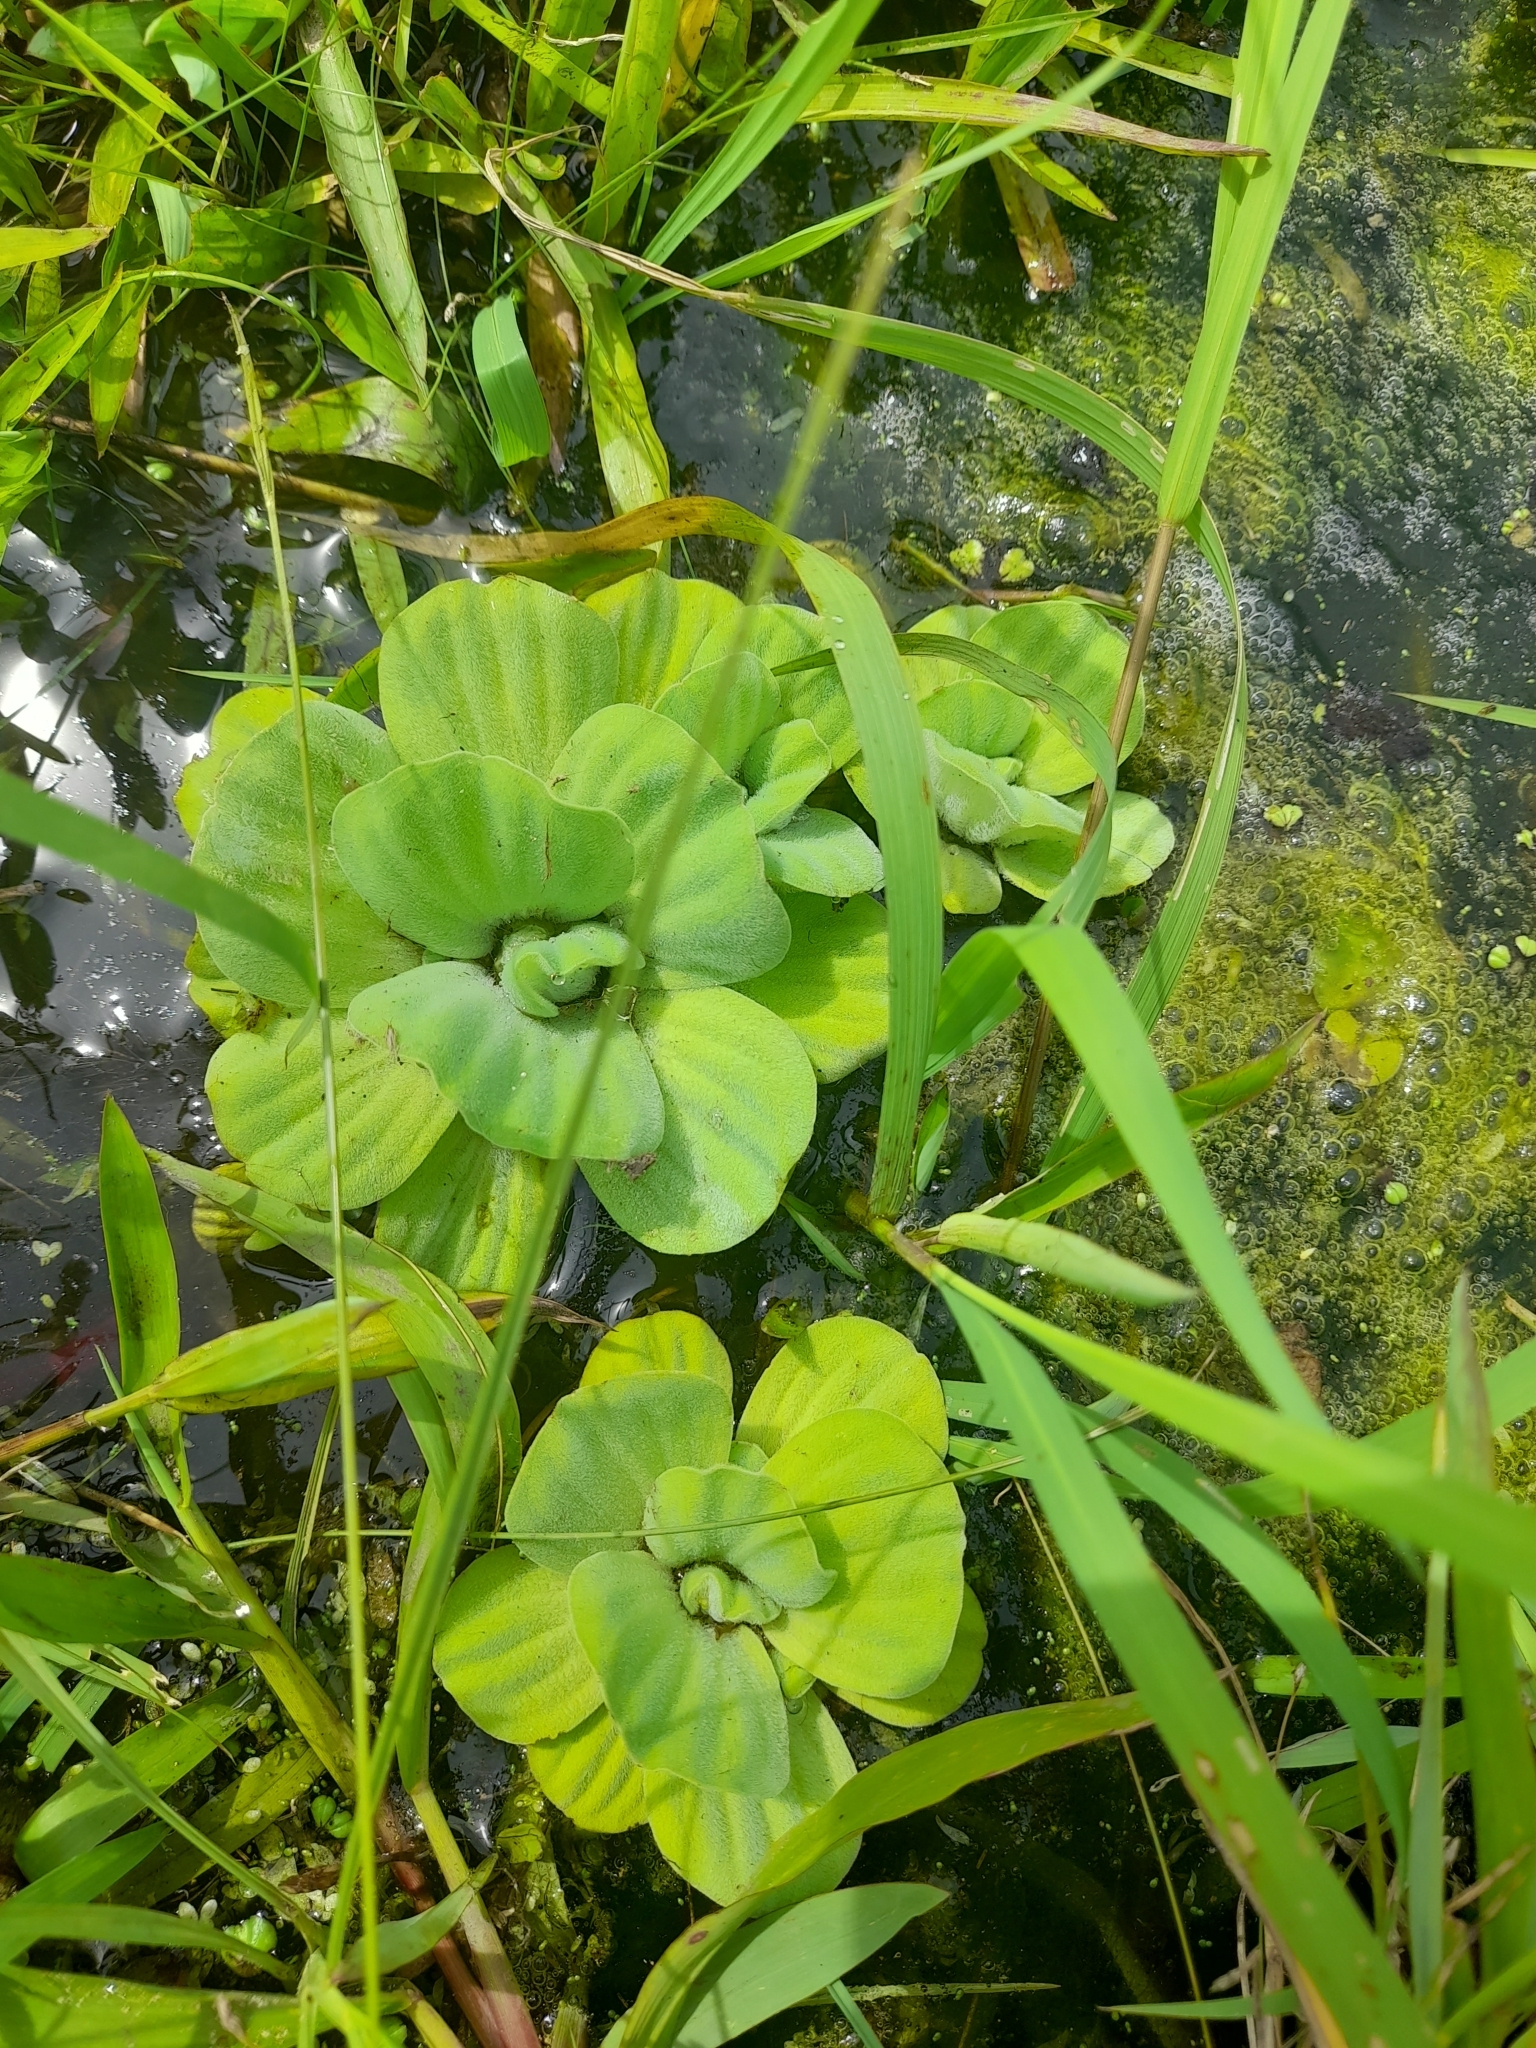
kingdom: Plantae
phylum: Tracheophyta
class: Liliopsida
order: Alismatales
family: Araceae
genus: Pistia
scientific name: Pistia stratiotes
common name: Water lettuce
